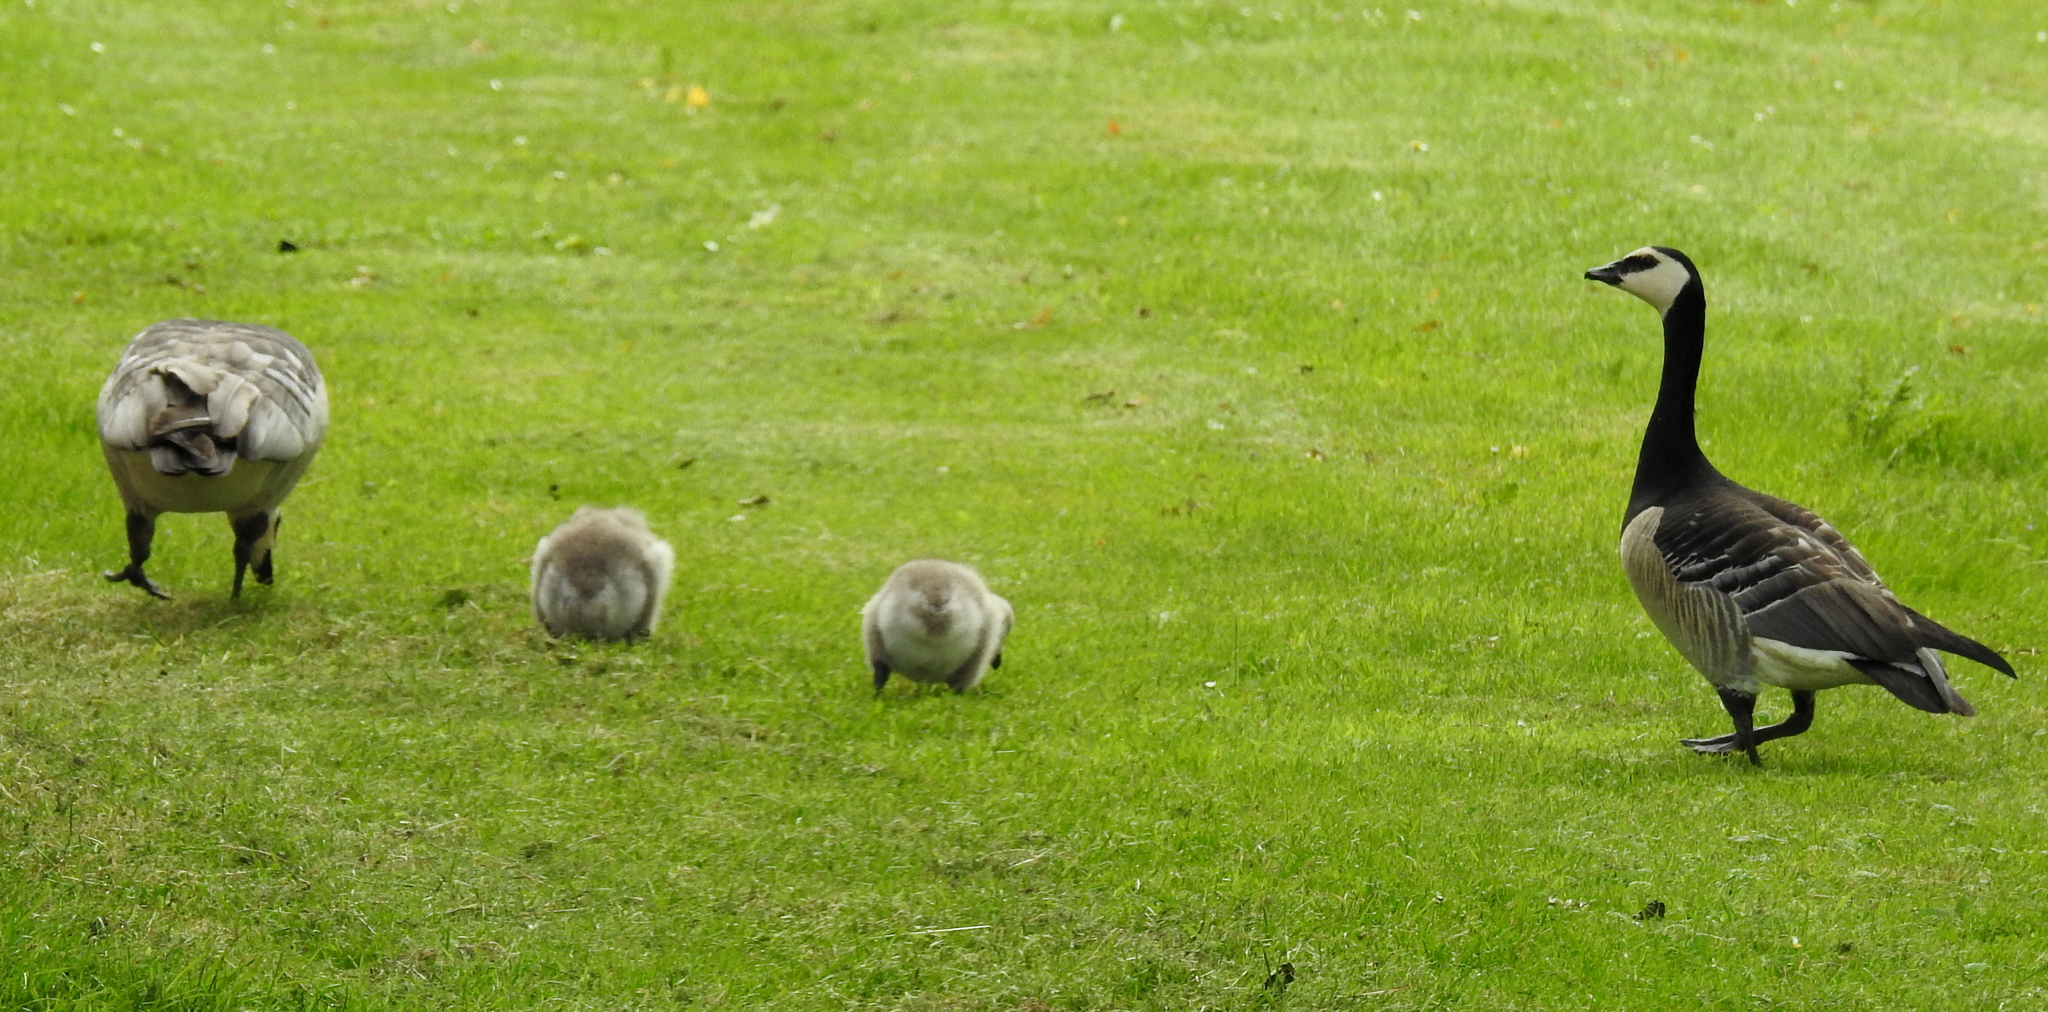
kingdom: Animalia
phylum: Chordata
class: Aves
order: Anseriformes
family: Anatidae
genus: Branta
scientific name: Branta leucopsis
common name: Barnacle goose
